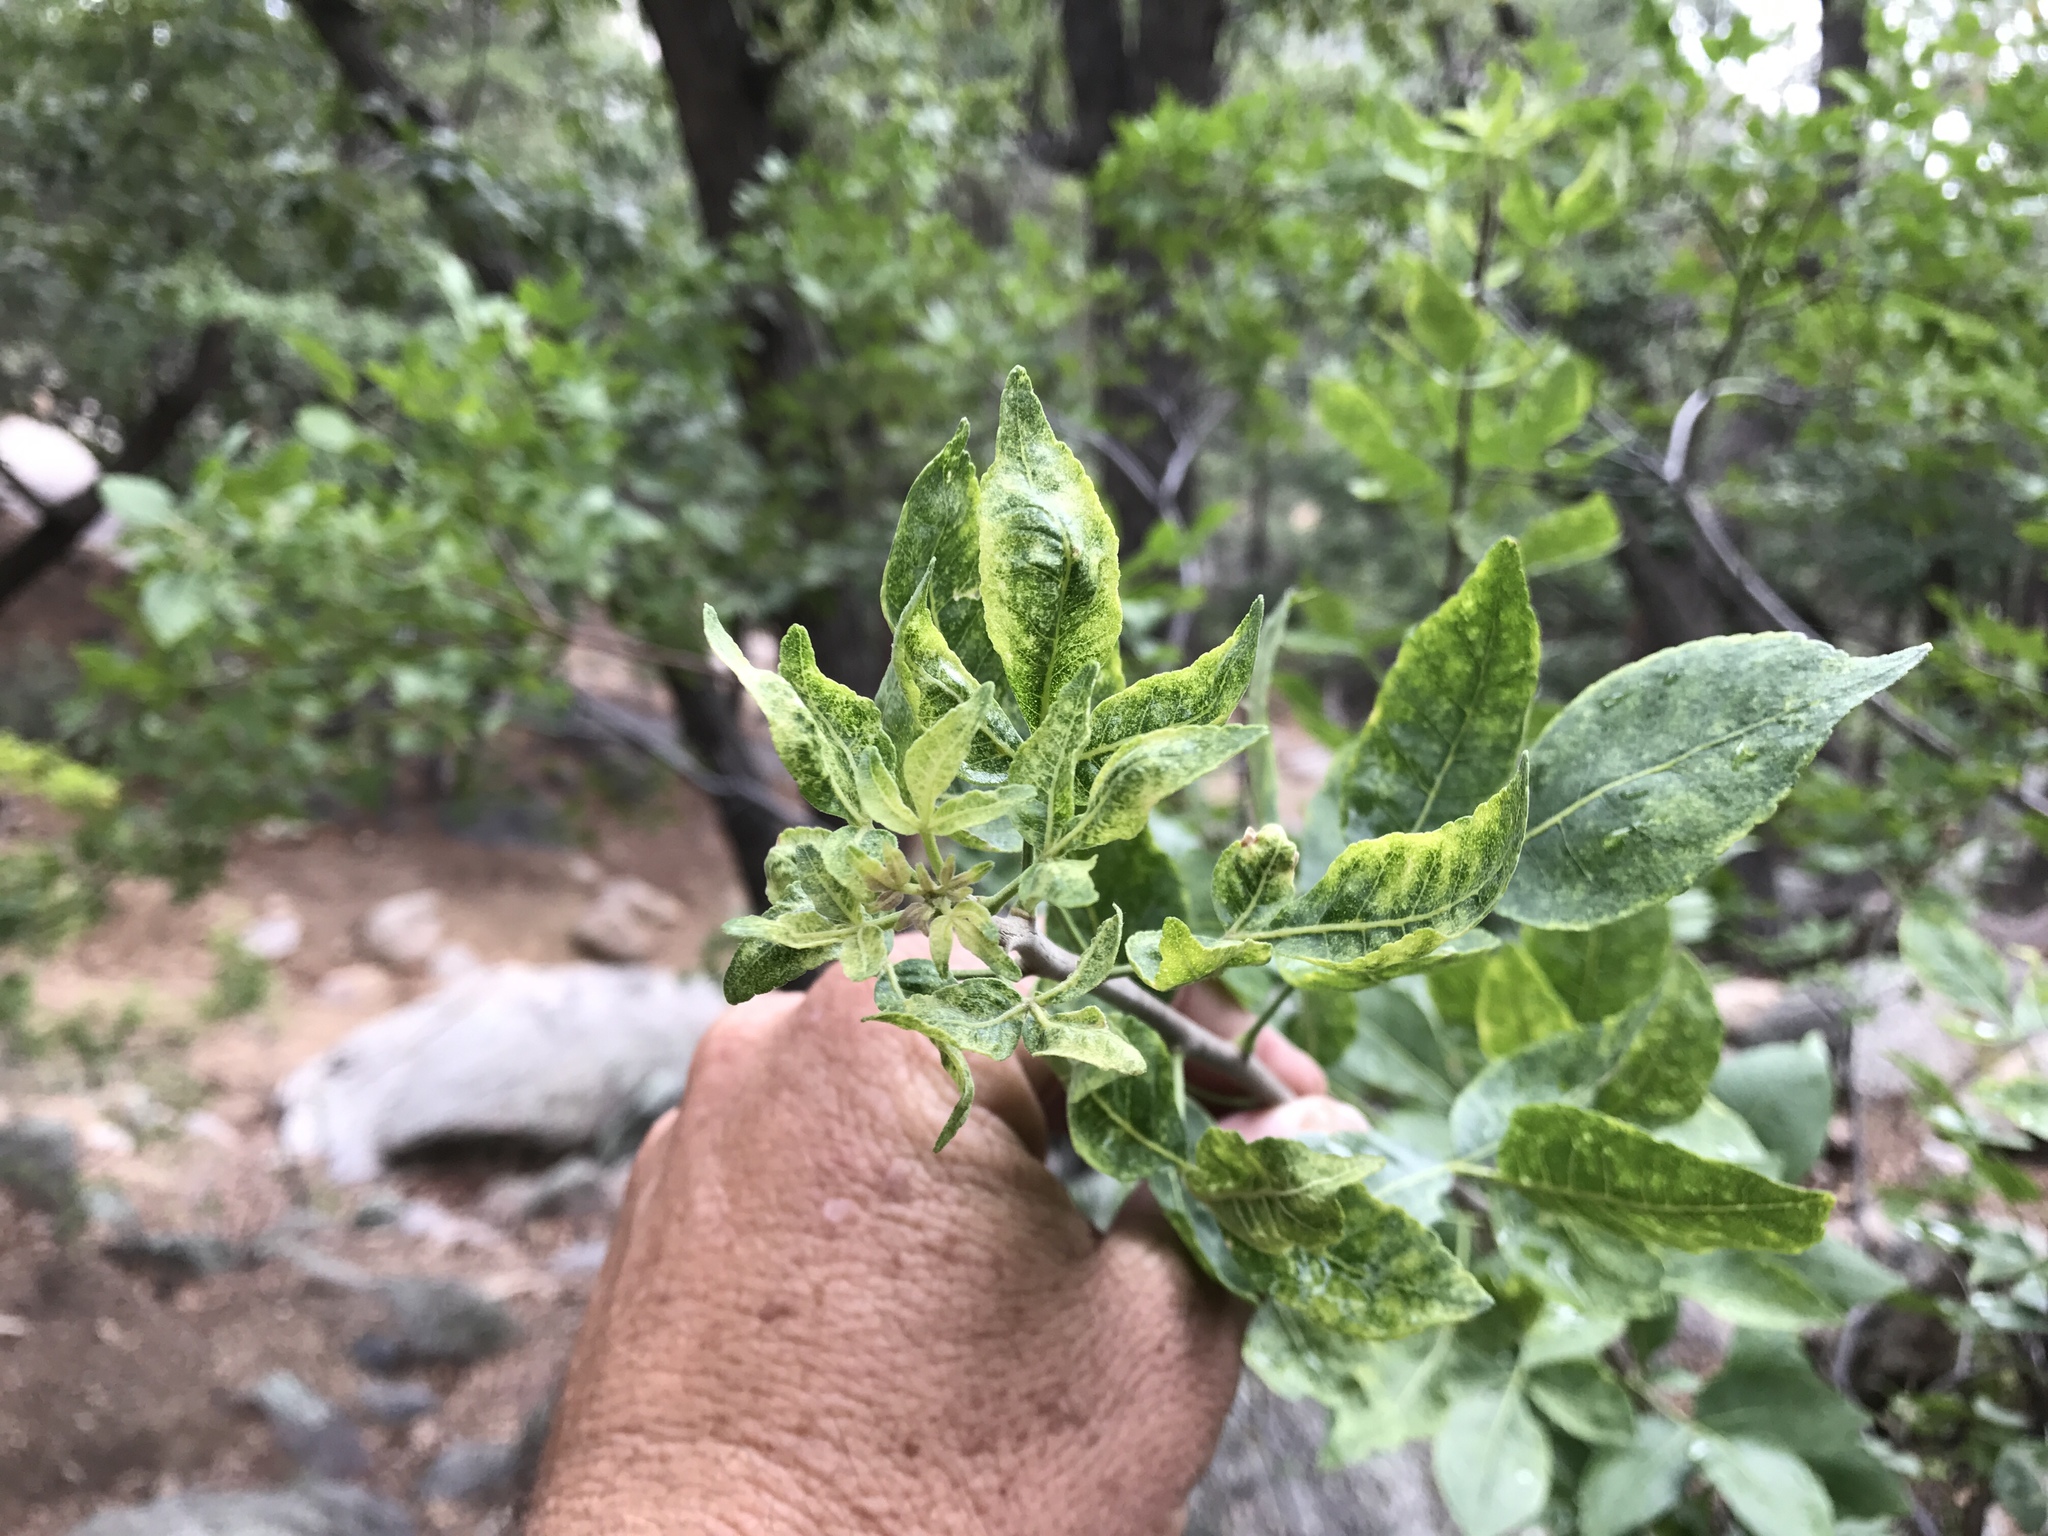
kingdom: Plantae
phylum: Tracheophyta
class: Magnoliopsida
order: Sapindales
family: Rutaceae
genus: Ptelea
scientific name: Ptelea trifoliata
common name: Common hop-tree
